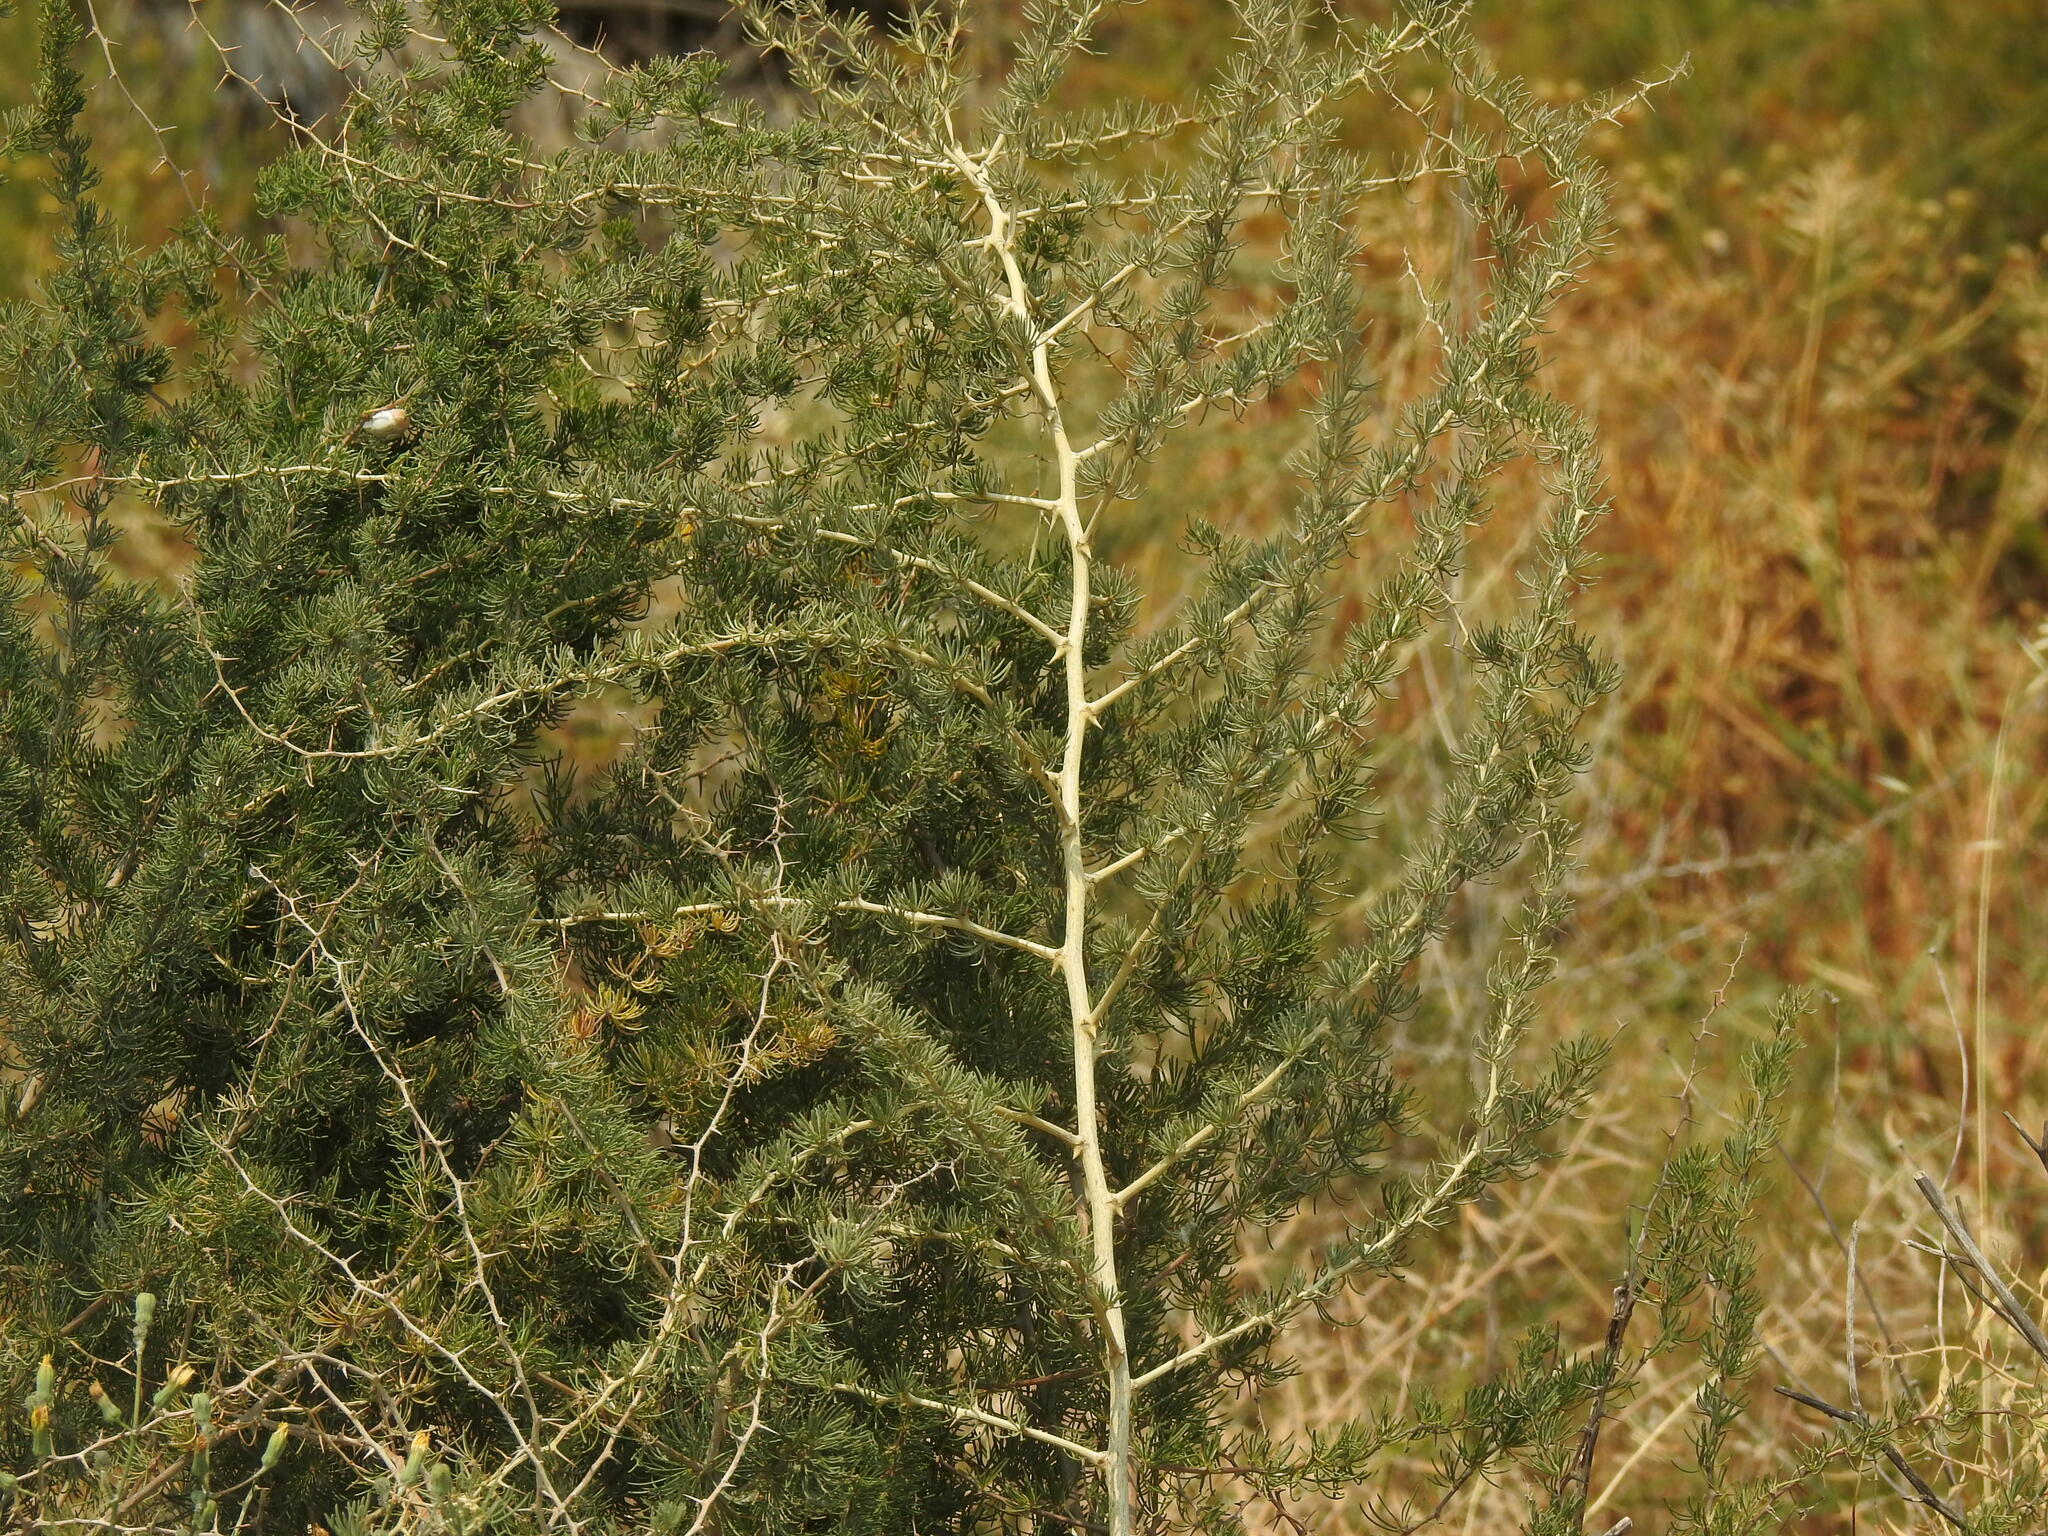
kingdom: Plantae
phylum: Tracheophyta
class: Liliopsida
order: Asparagales
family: Asparagaceae
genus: Asparagus
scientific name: Asparagus albus
